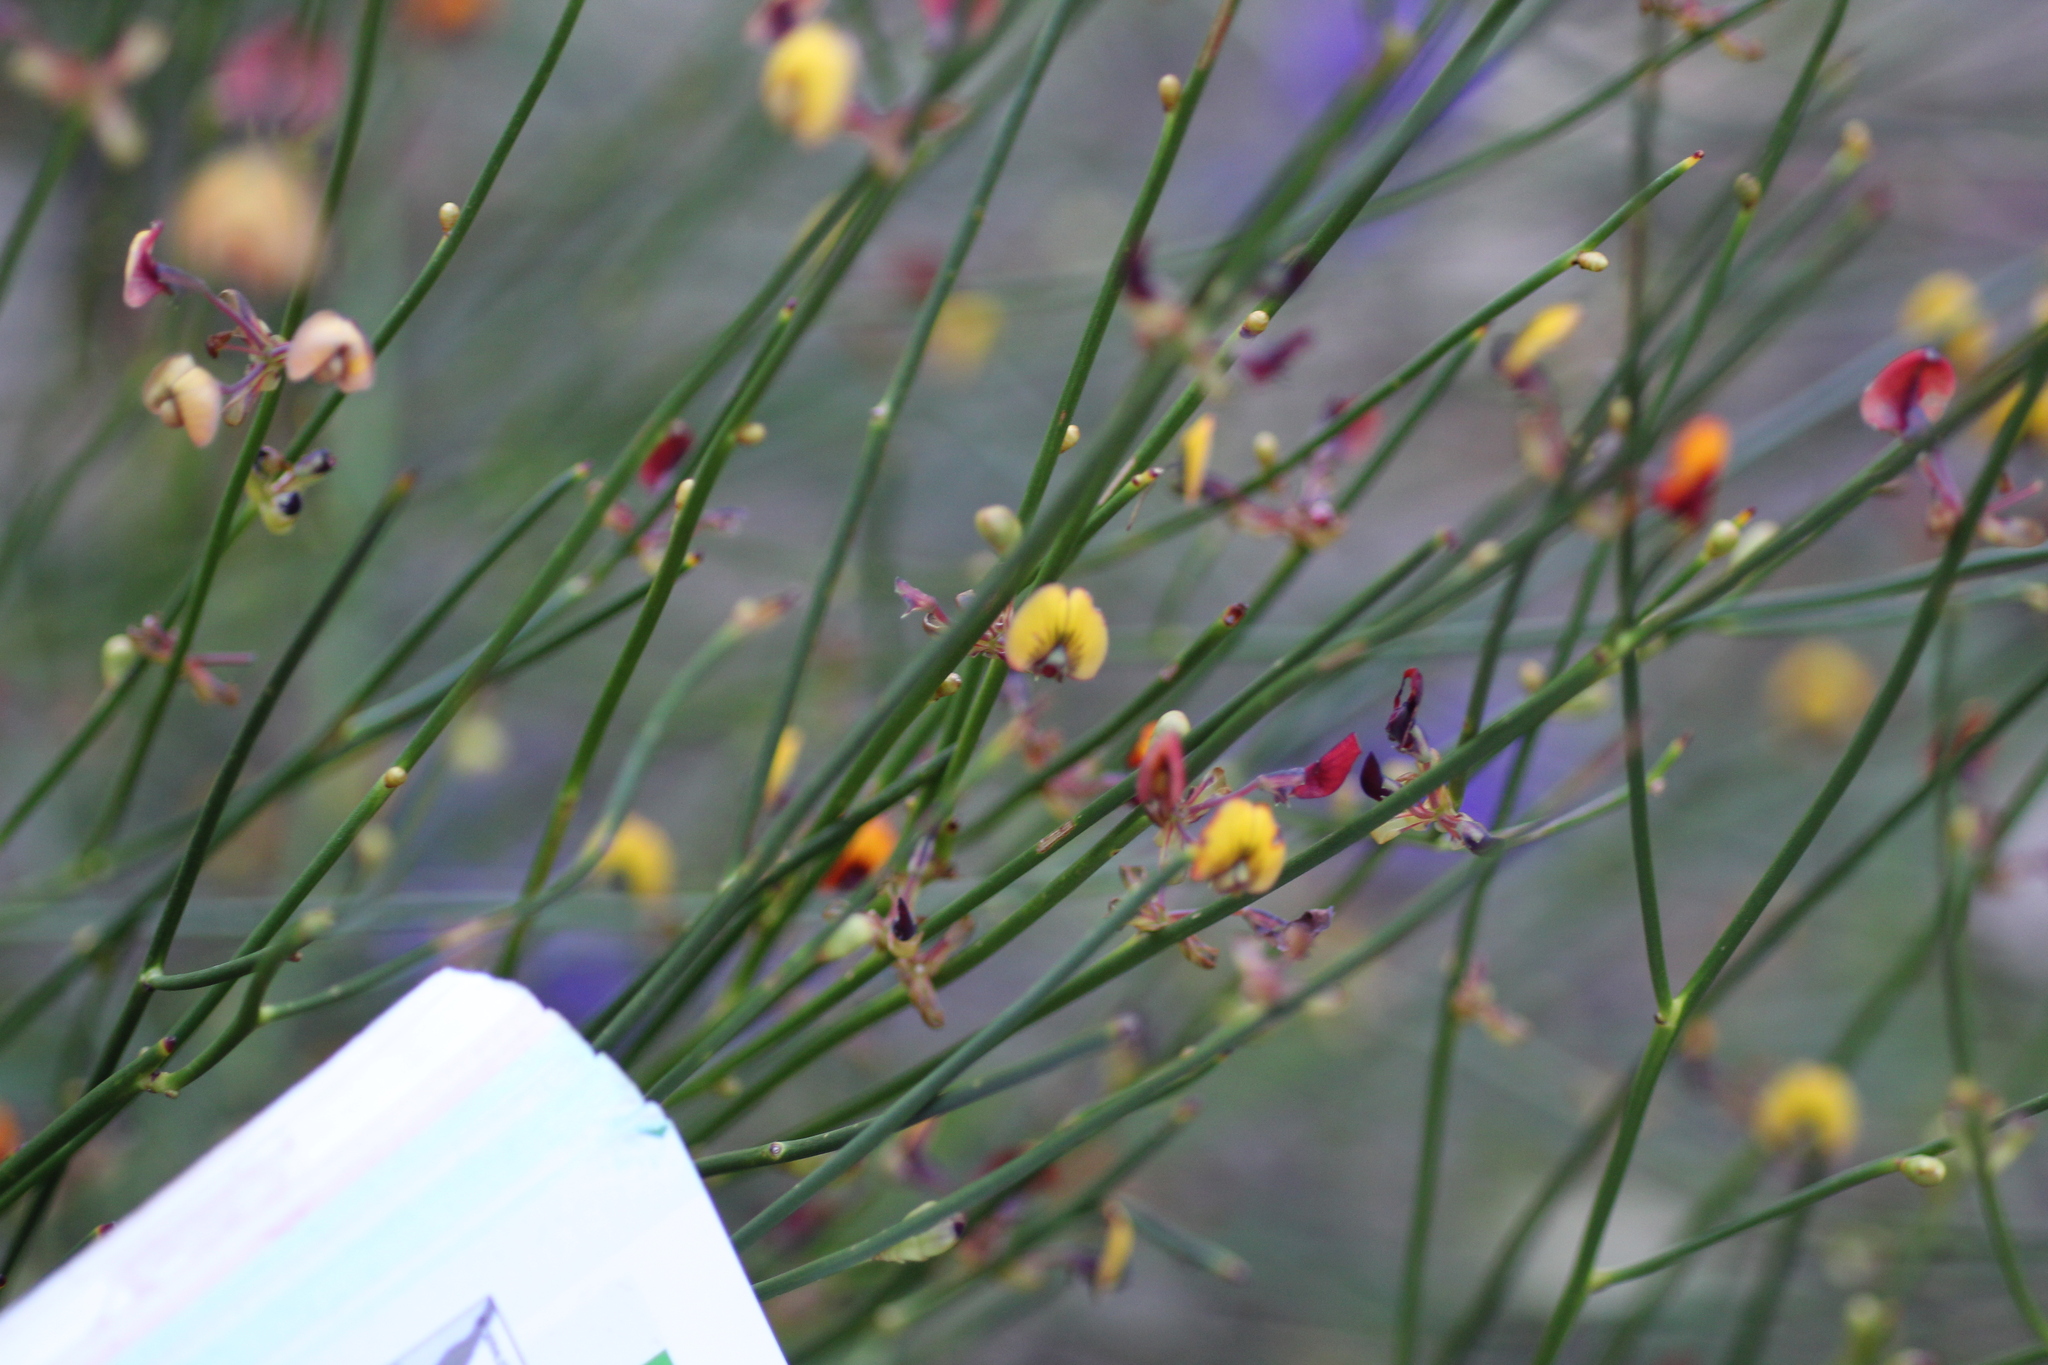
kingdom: Plantae
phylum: Tracheophyta
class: Magnoliopsida
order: Fabales
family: Fabaceae
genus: Daviesia
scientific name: Daviesia triflora
